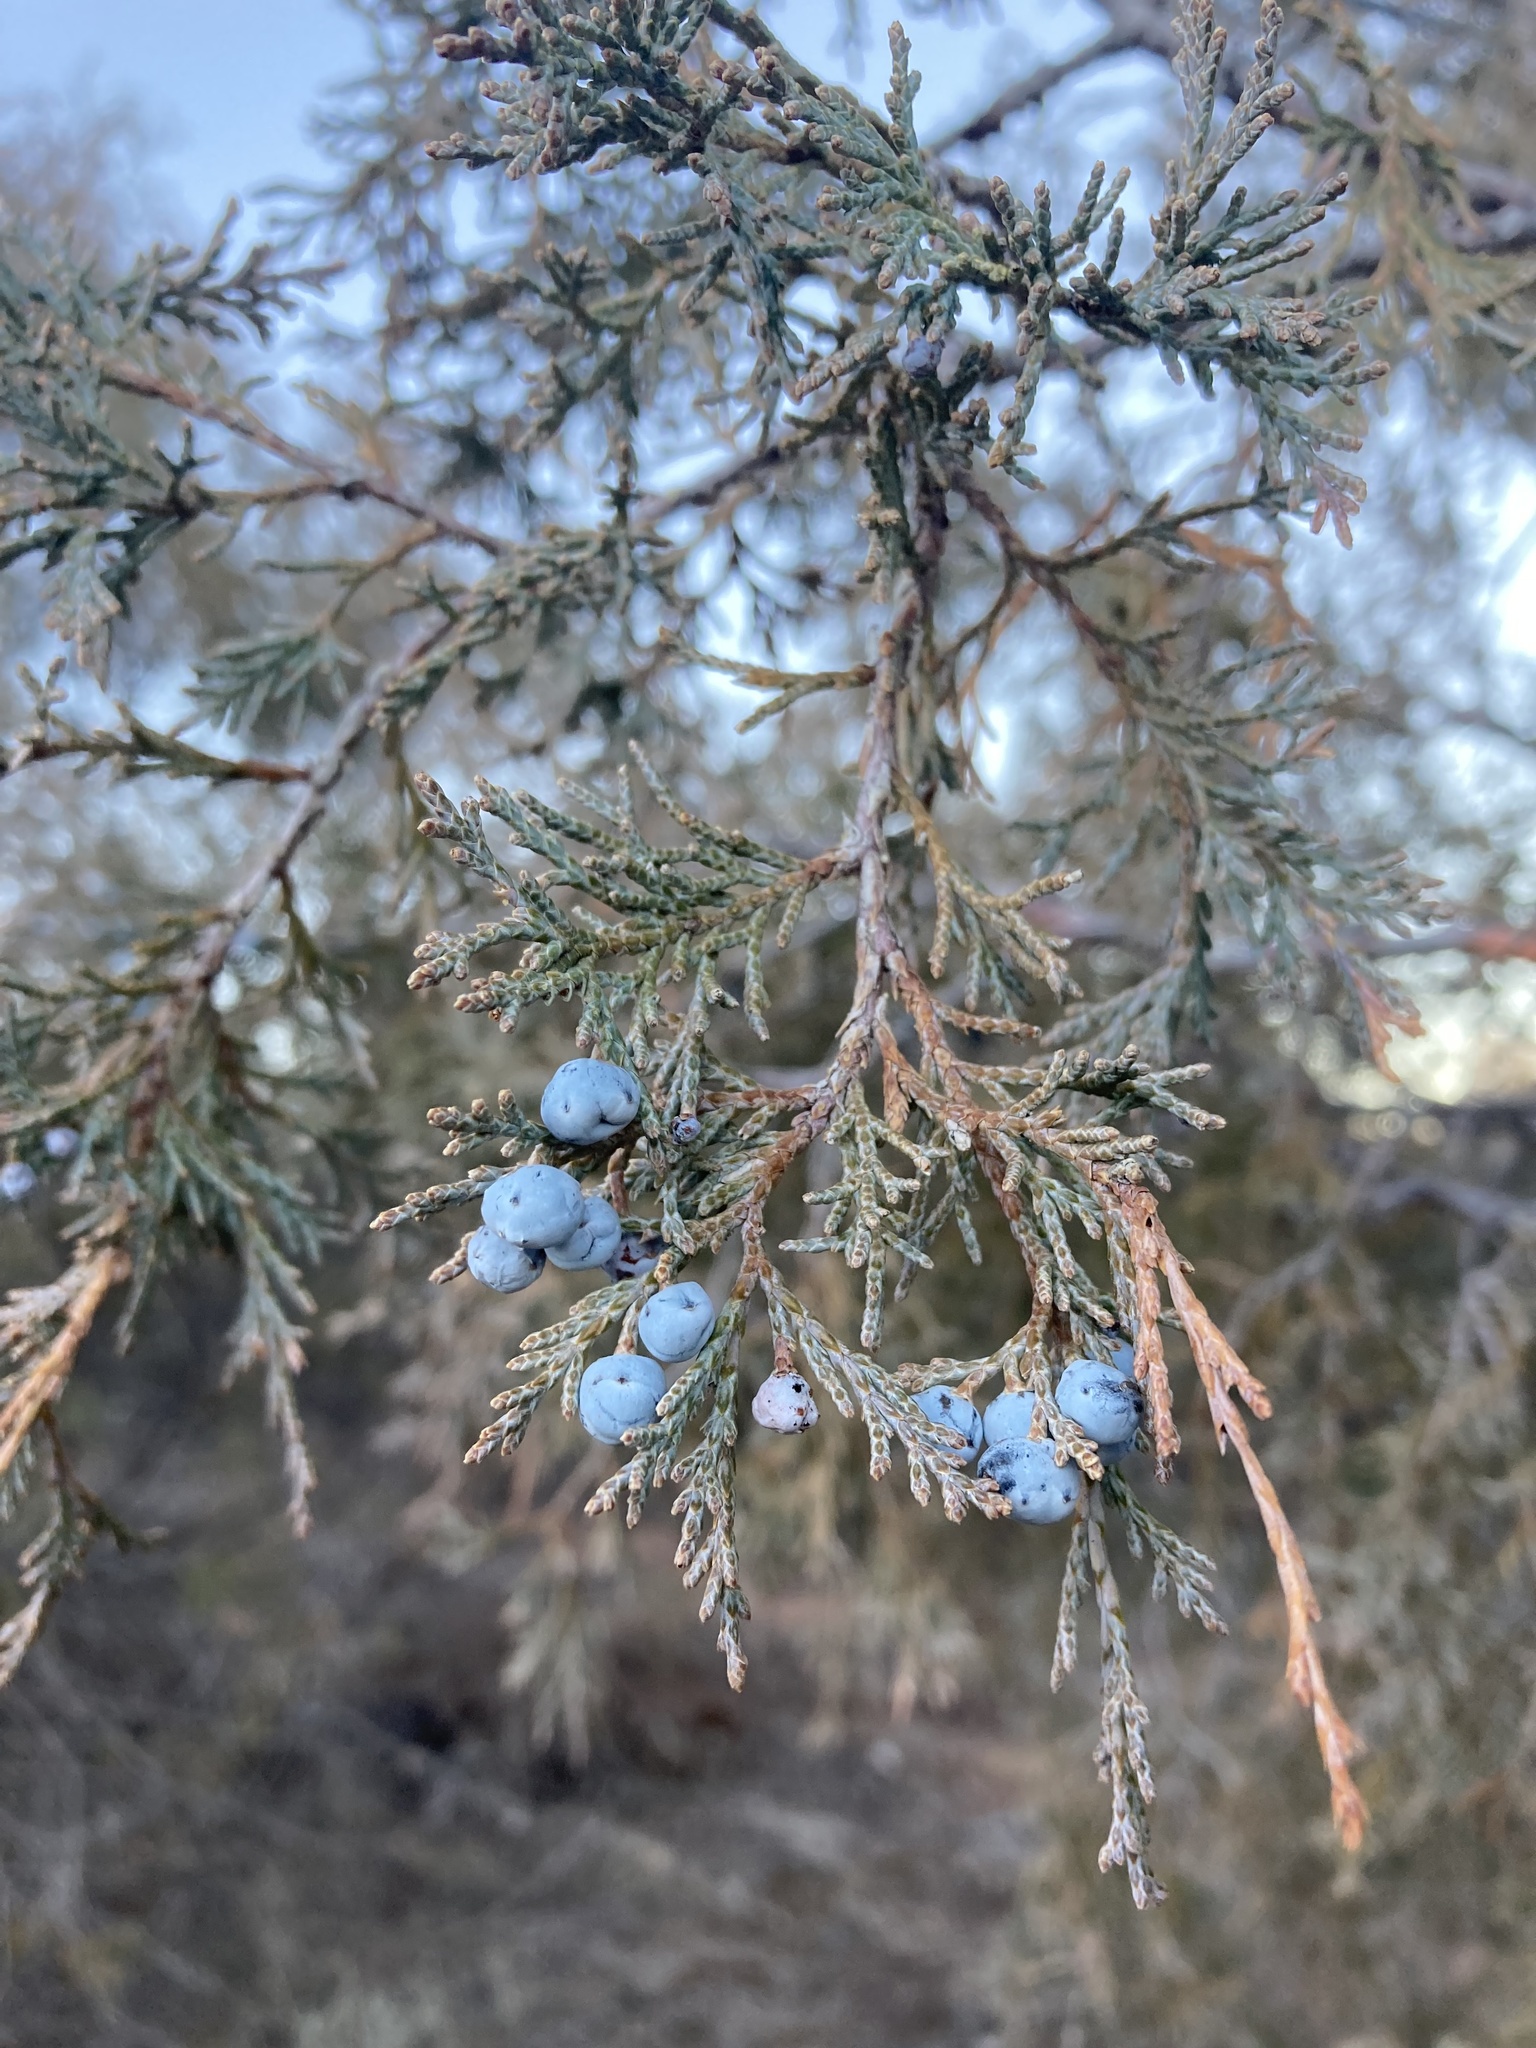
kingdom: Plantae
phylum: Tracheophyta
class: Pinopsida
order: Pinales
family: Cupressaceae
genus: Juniperus
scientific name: Juniperus scopulorum
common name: Rocky mountain juniper
